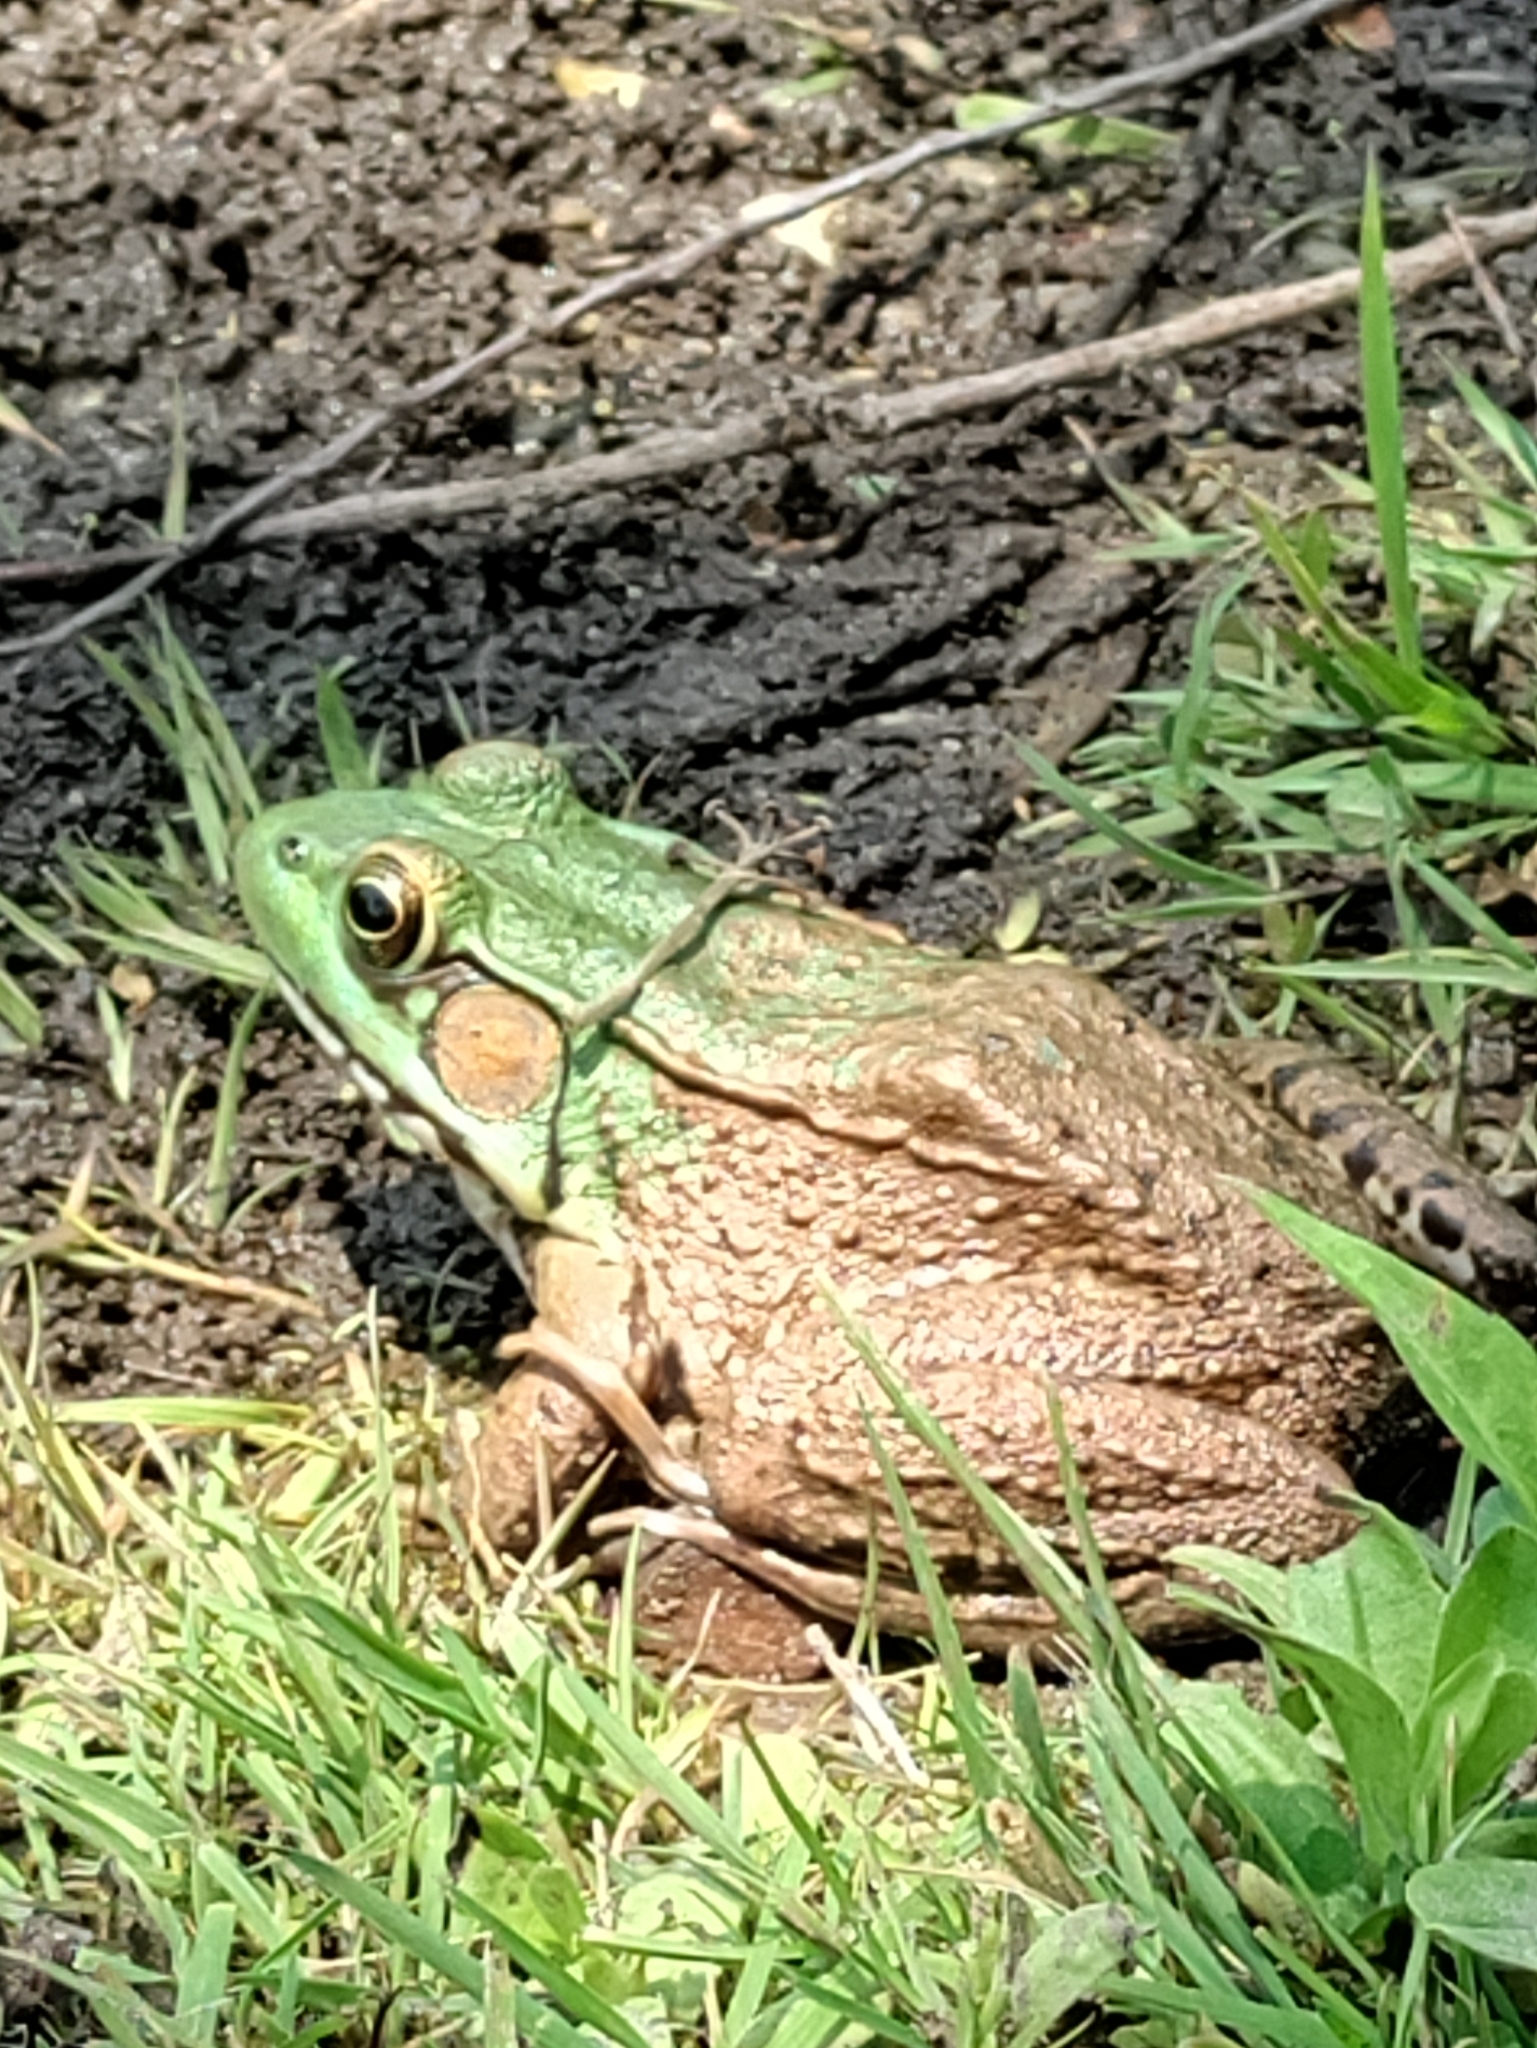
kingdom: Animalia
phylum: Chordata
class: Amphibia
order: Anura
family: Ranidae
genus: Lithobates
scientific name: Lithobates clamitans
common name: Green frog
